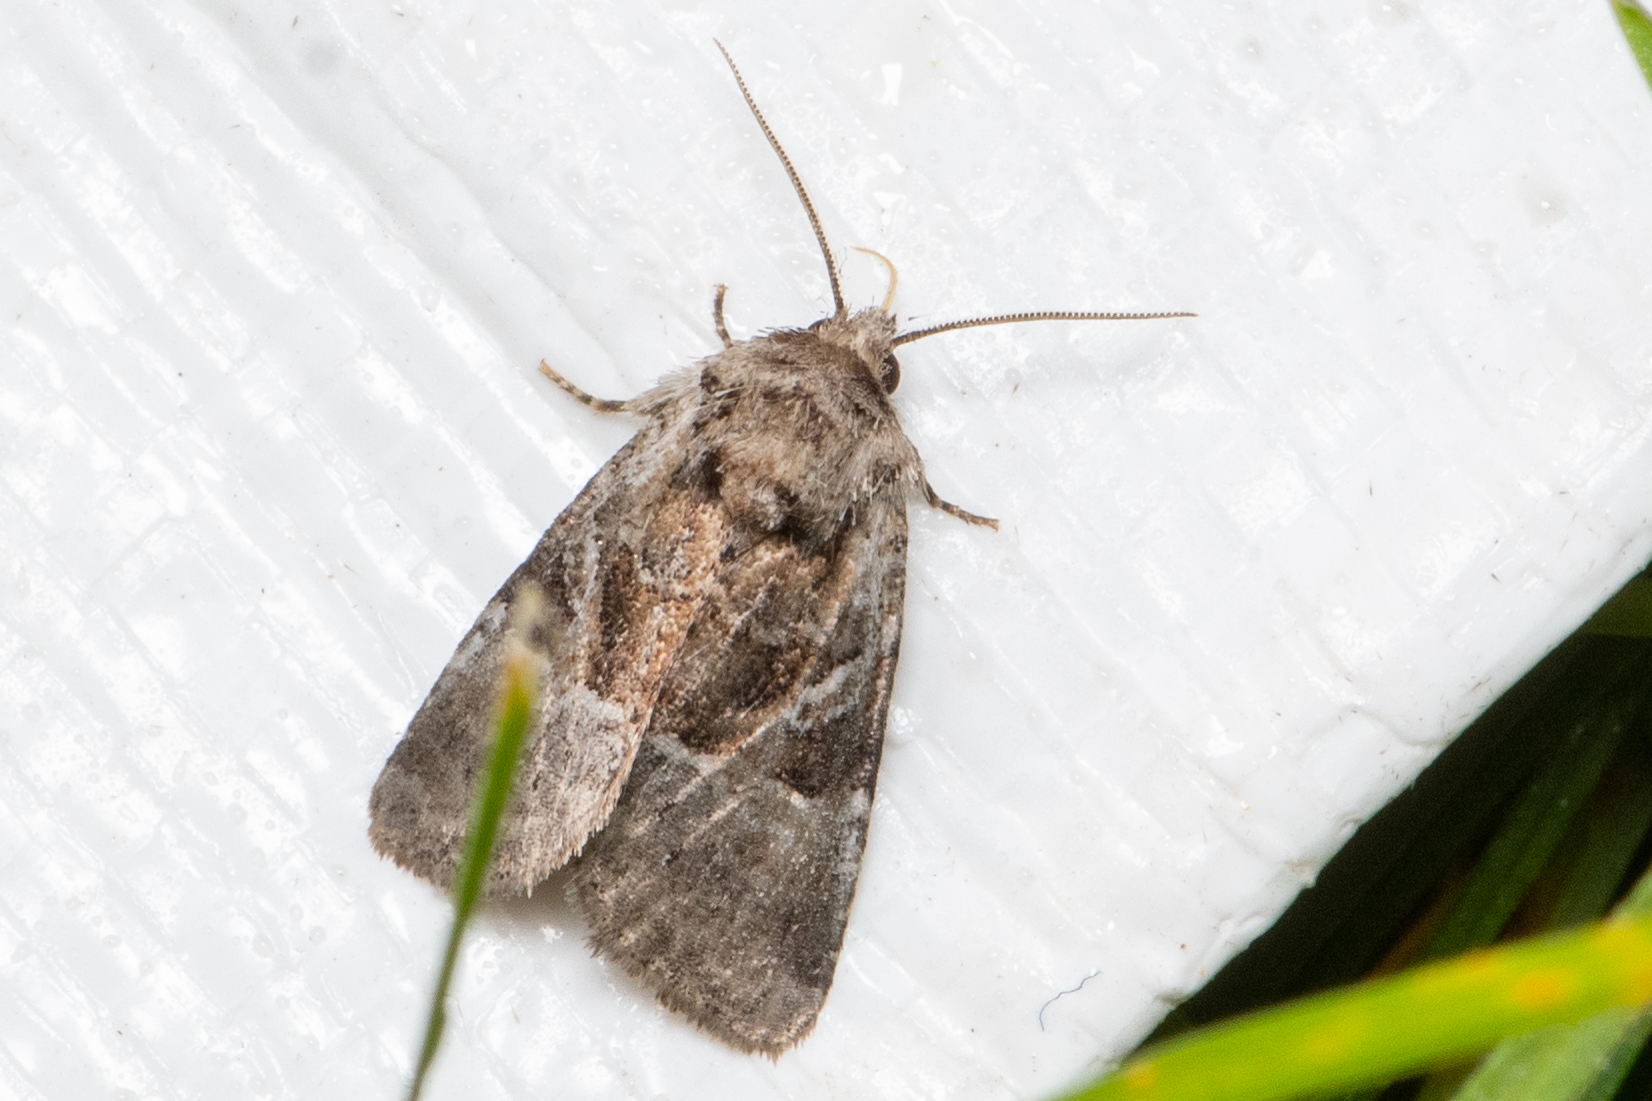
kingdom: Animalia
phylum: Arthropoda
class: Insecta
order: Lepidoptera
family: Noctuidae
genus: Meropleon
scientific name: Meropleon ambifusca
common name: Newman's brocade
